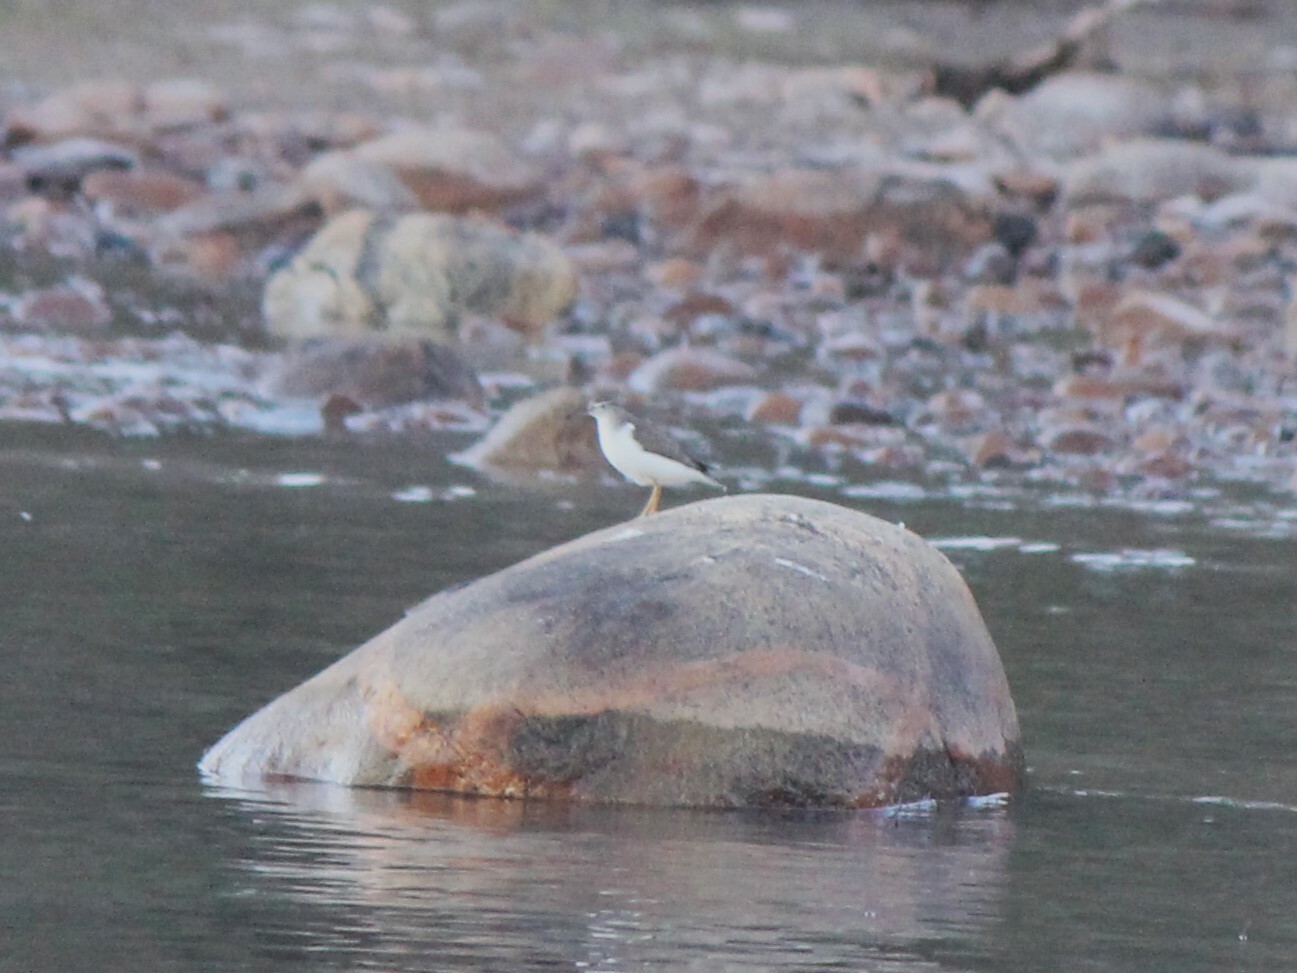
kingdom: Animalia
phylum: Chordata
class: Aves
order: Charadriiformes
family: Scolopacidae
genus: Actitis
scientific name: Actitis macularius
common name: Spotted sandpiper
